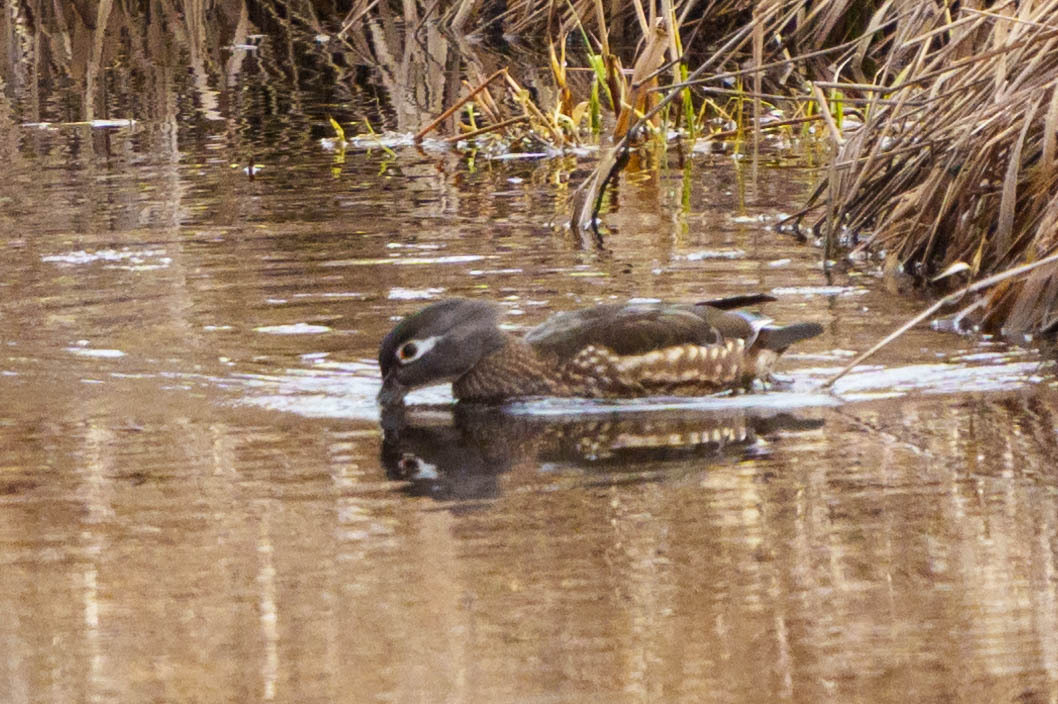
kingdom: Animalia
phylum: Chordata
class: Aves
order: Anseriformes
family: Anatidae
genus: Aix
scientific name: Aix sponsa
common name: Wood duck
